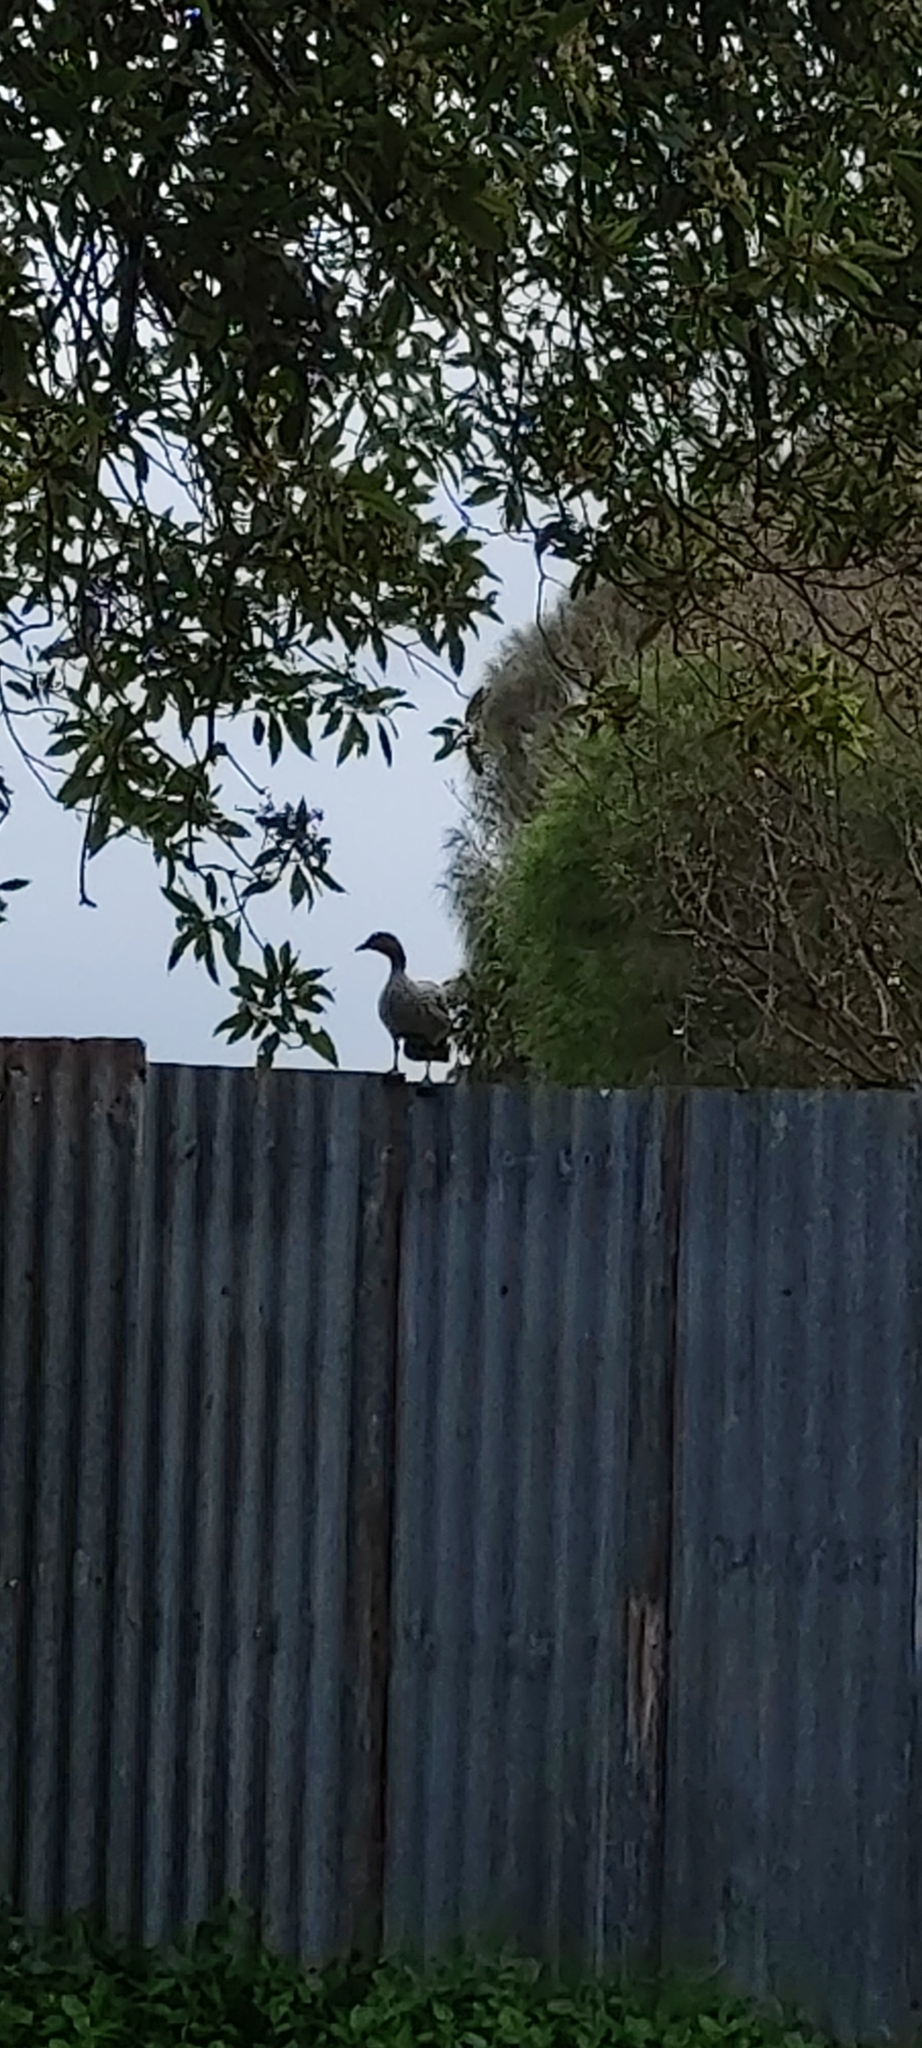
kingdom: Animalia
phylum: Chordata
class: Aves
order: Anseriformes
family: Anatidae
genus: Chenonetta
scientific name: Chenonetta jubata
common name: Maned duck
